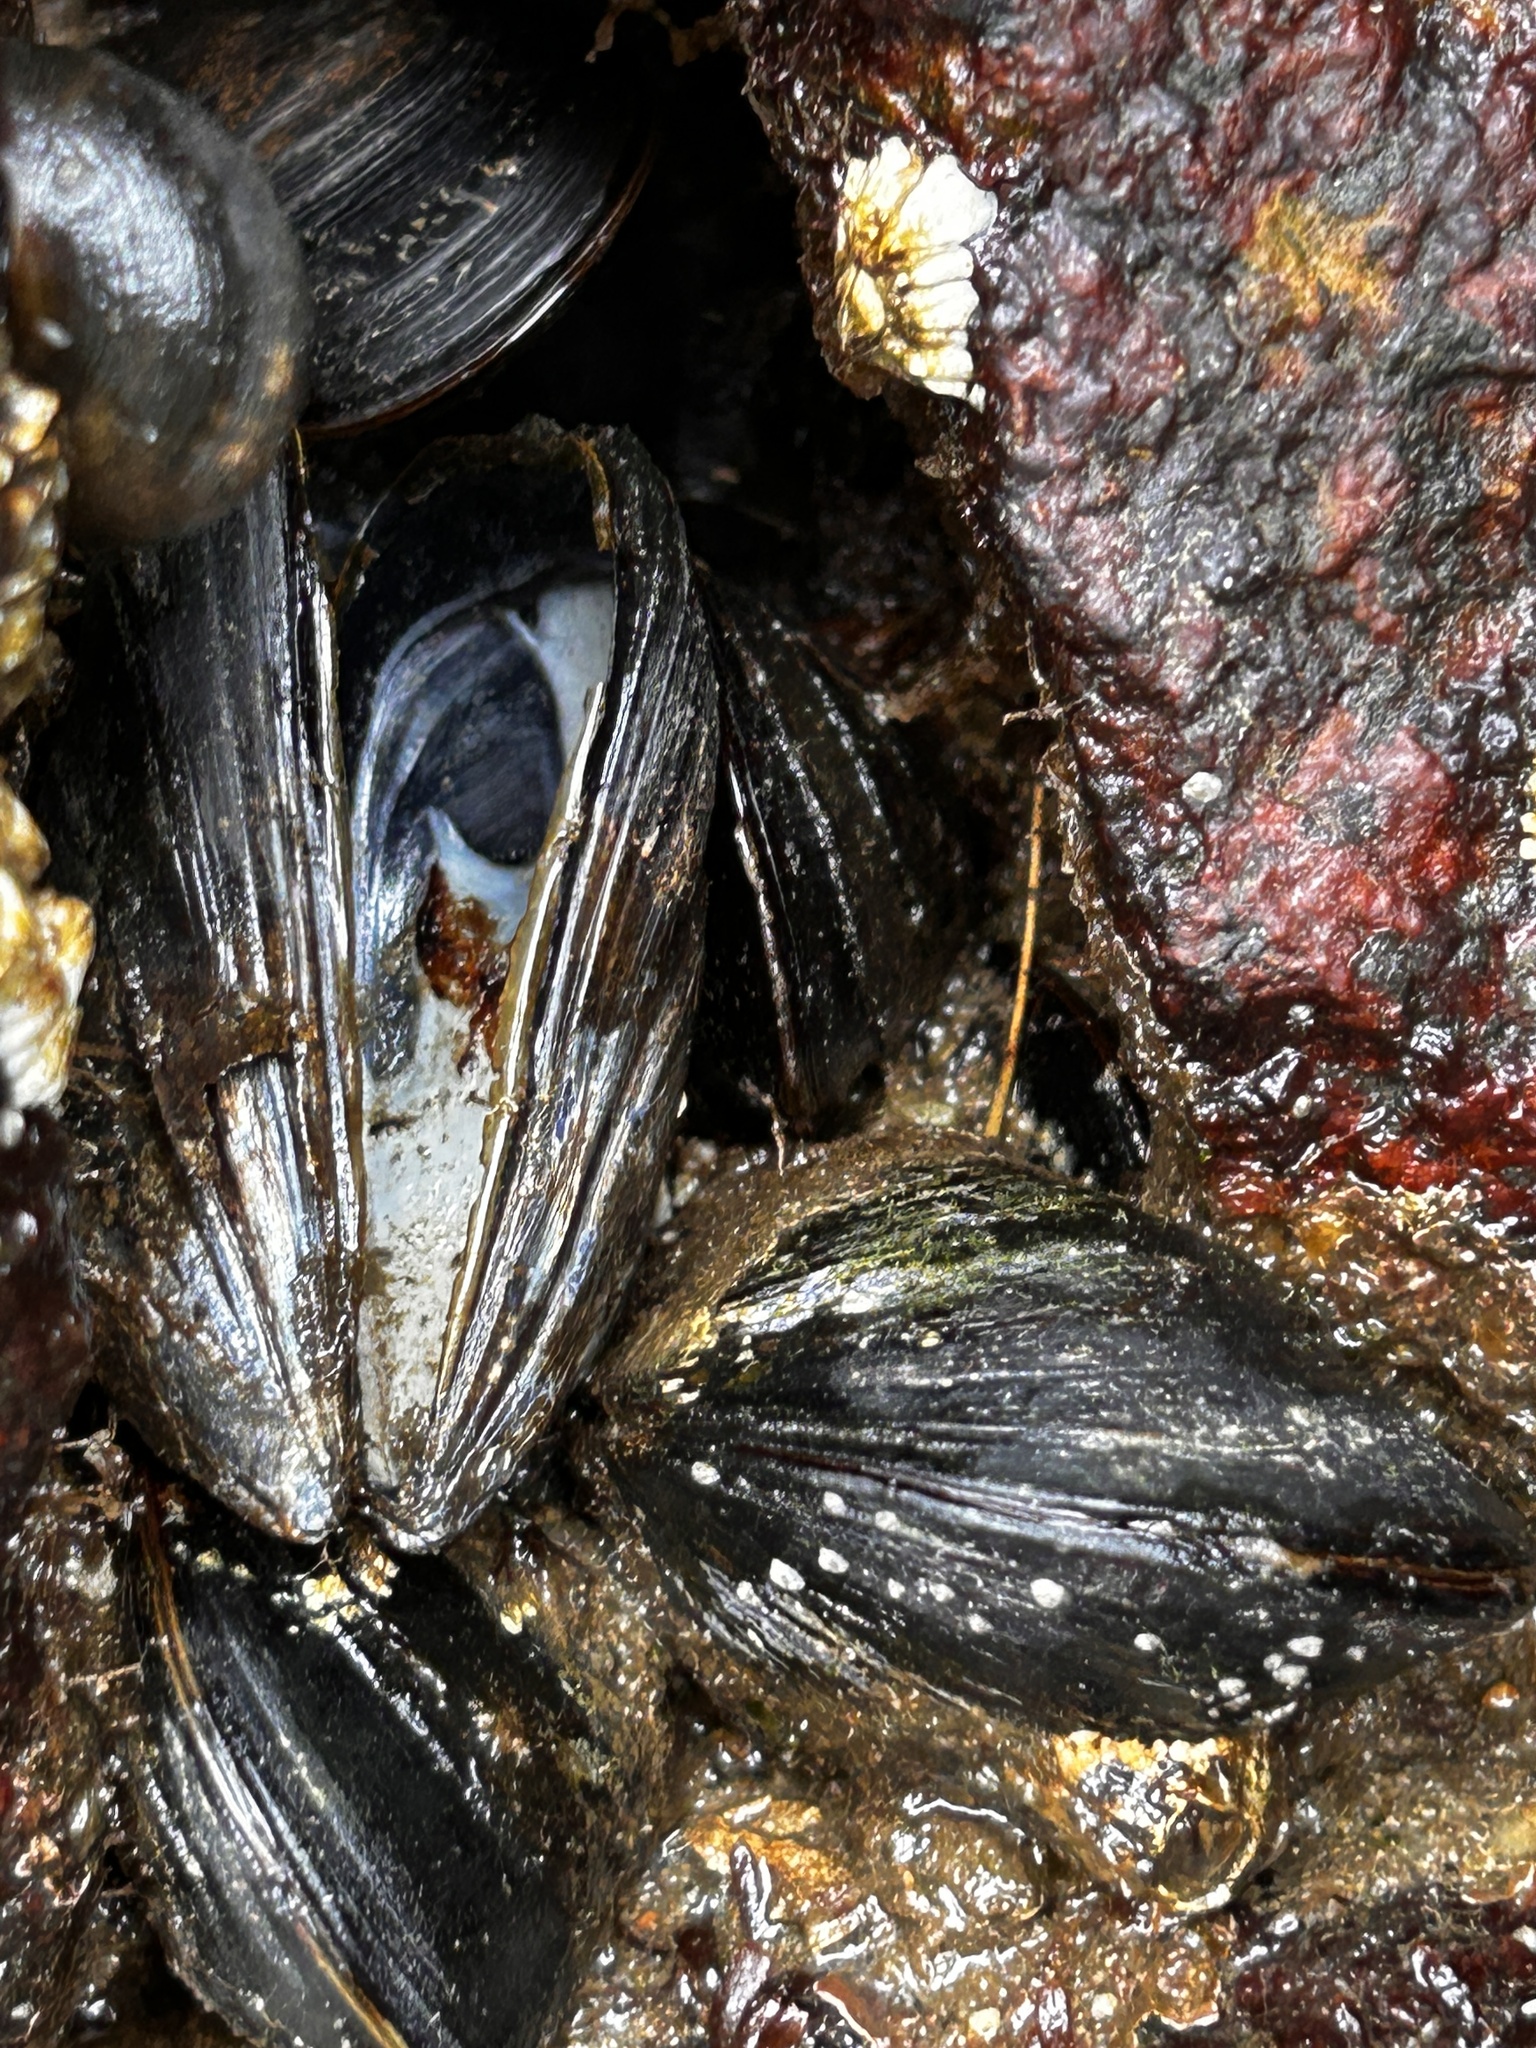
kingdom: Animalia
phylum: Mollusca
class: Bivalvia
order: Mytilida
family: Mytilidae
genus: Mytilus
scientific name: Mytilus edulis
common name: Blue mussel
